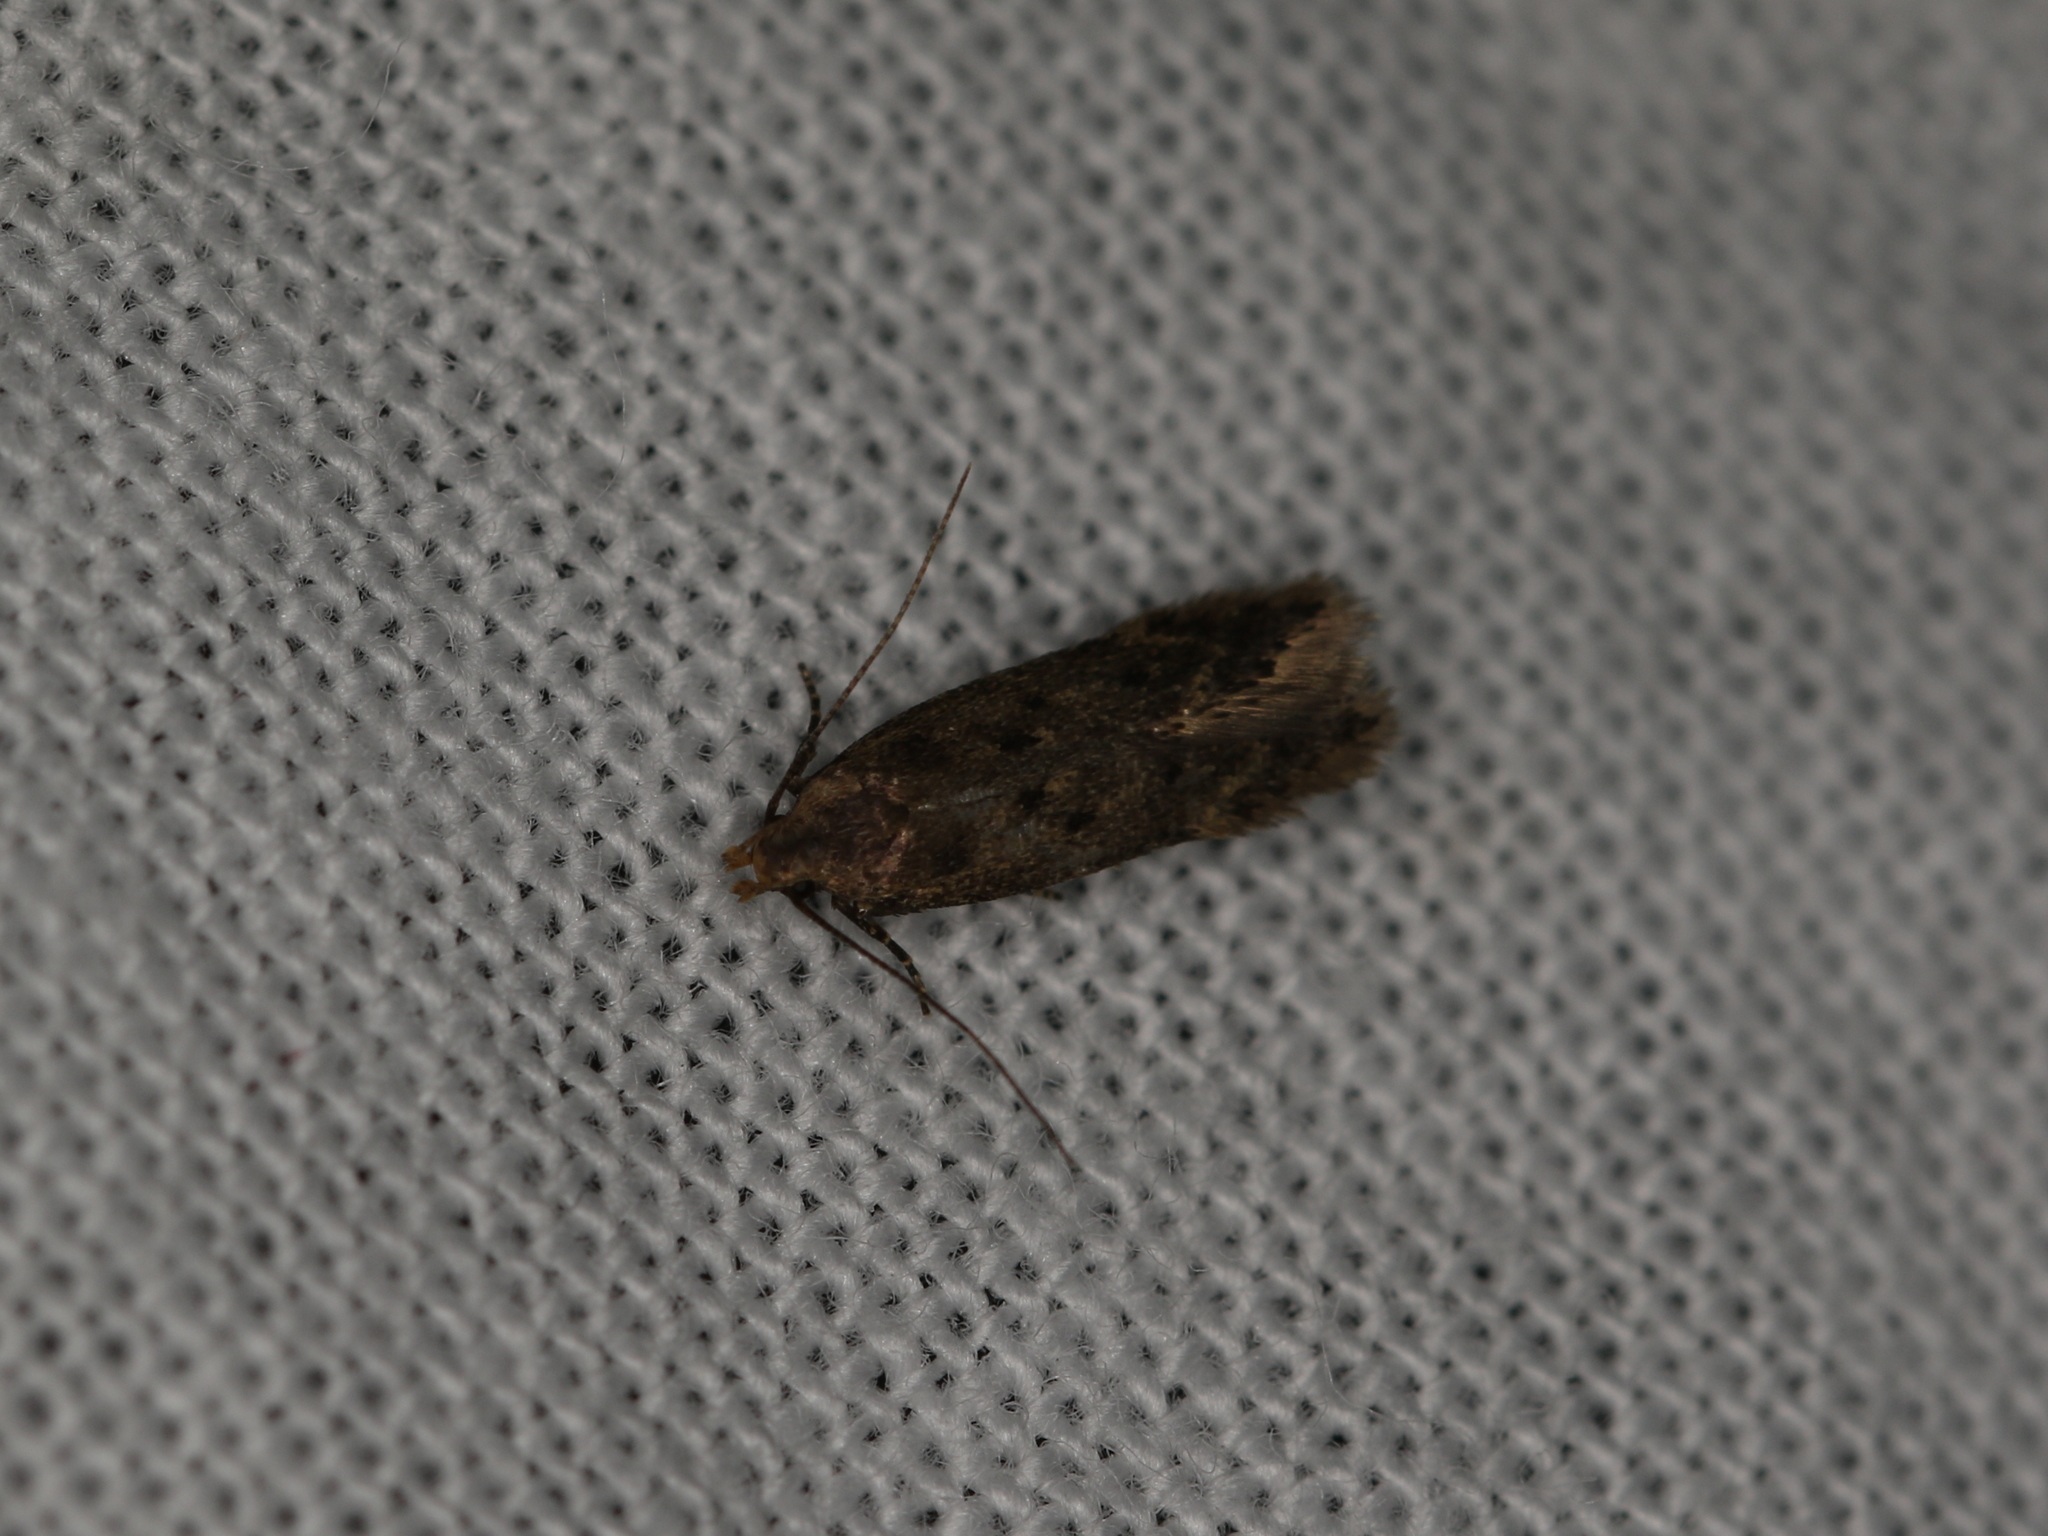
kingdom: Animalia
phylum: Arthropoda
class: Insecta
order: Lepidoptera
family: Gelechiidae
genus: Bryotropha
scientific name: Bryotropha terrella
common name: Cinerous groundling
